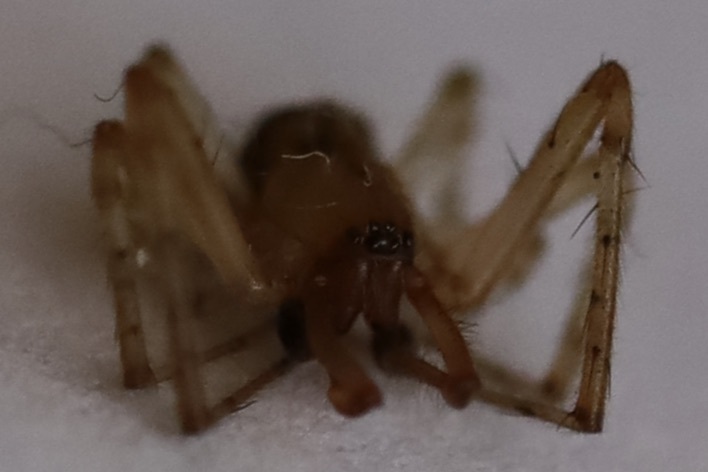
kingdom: Animalia
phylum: Arthropoda
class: Arachnida
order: Araneae
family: Araneidae
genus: Zygiella
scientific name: Zygiella atrica
